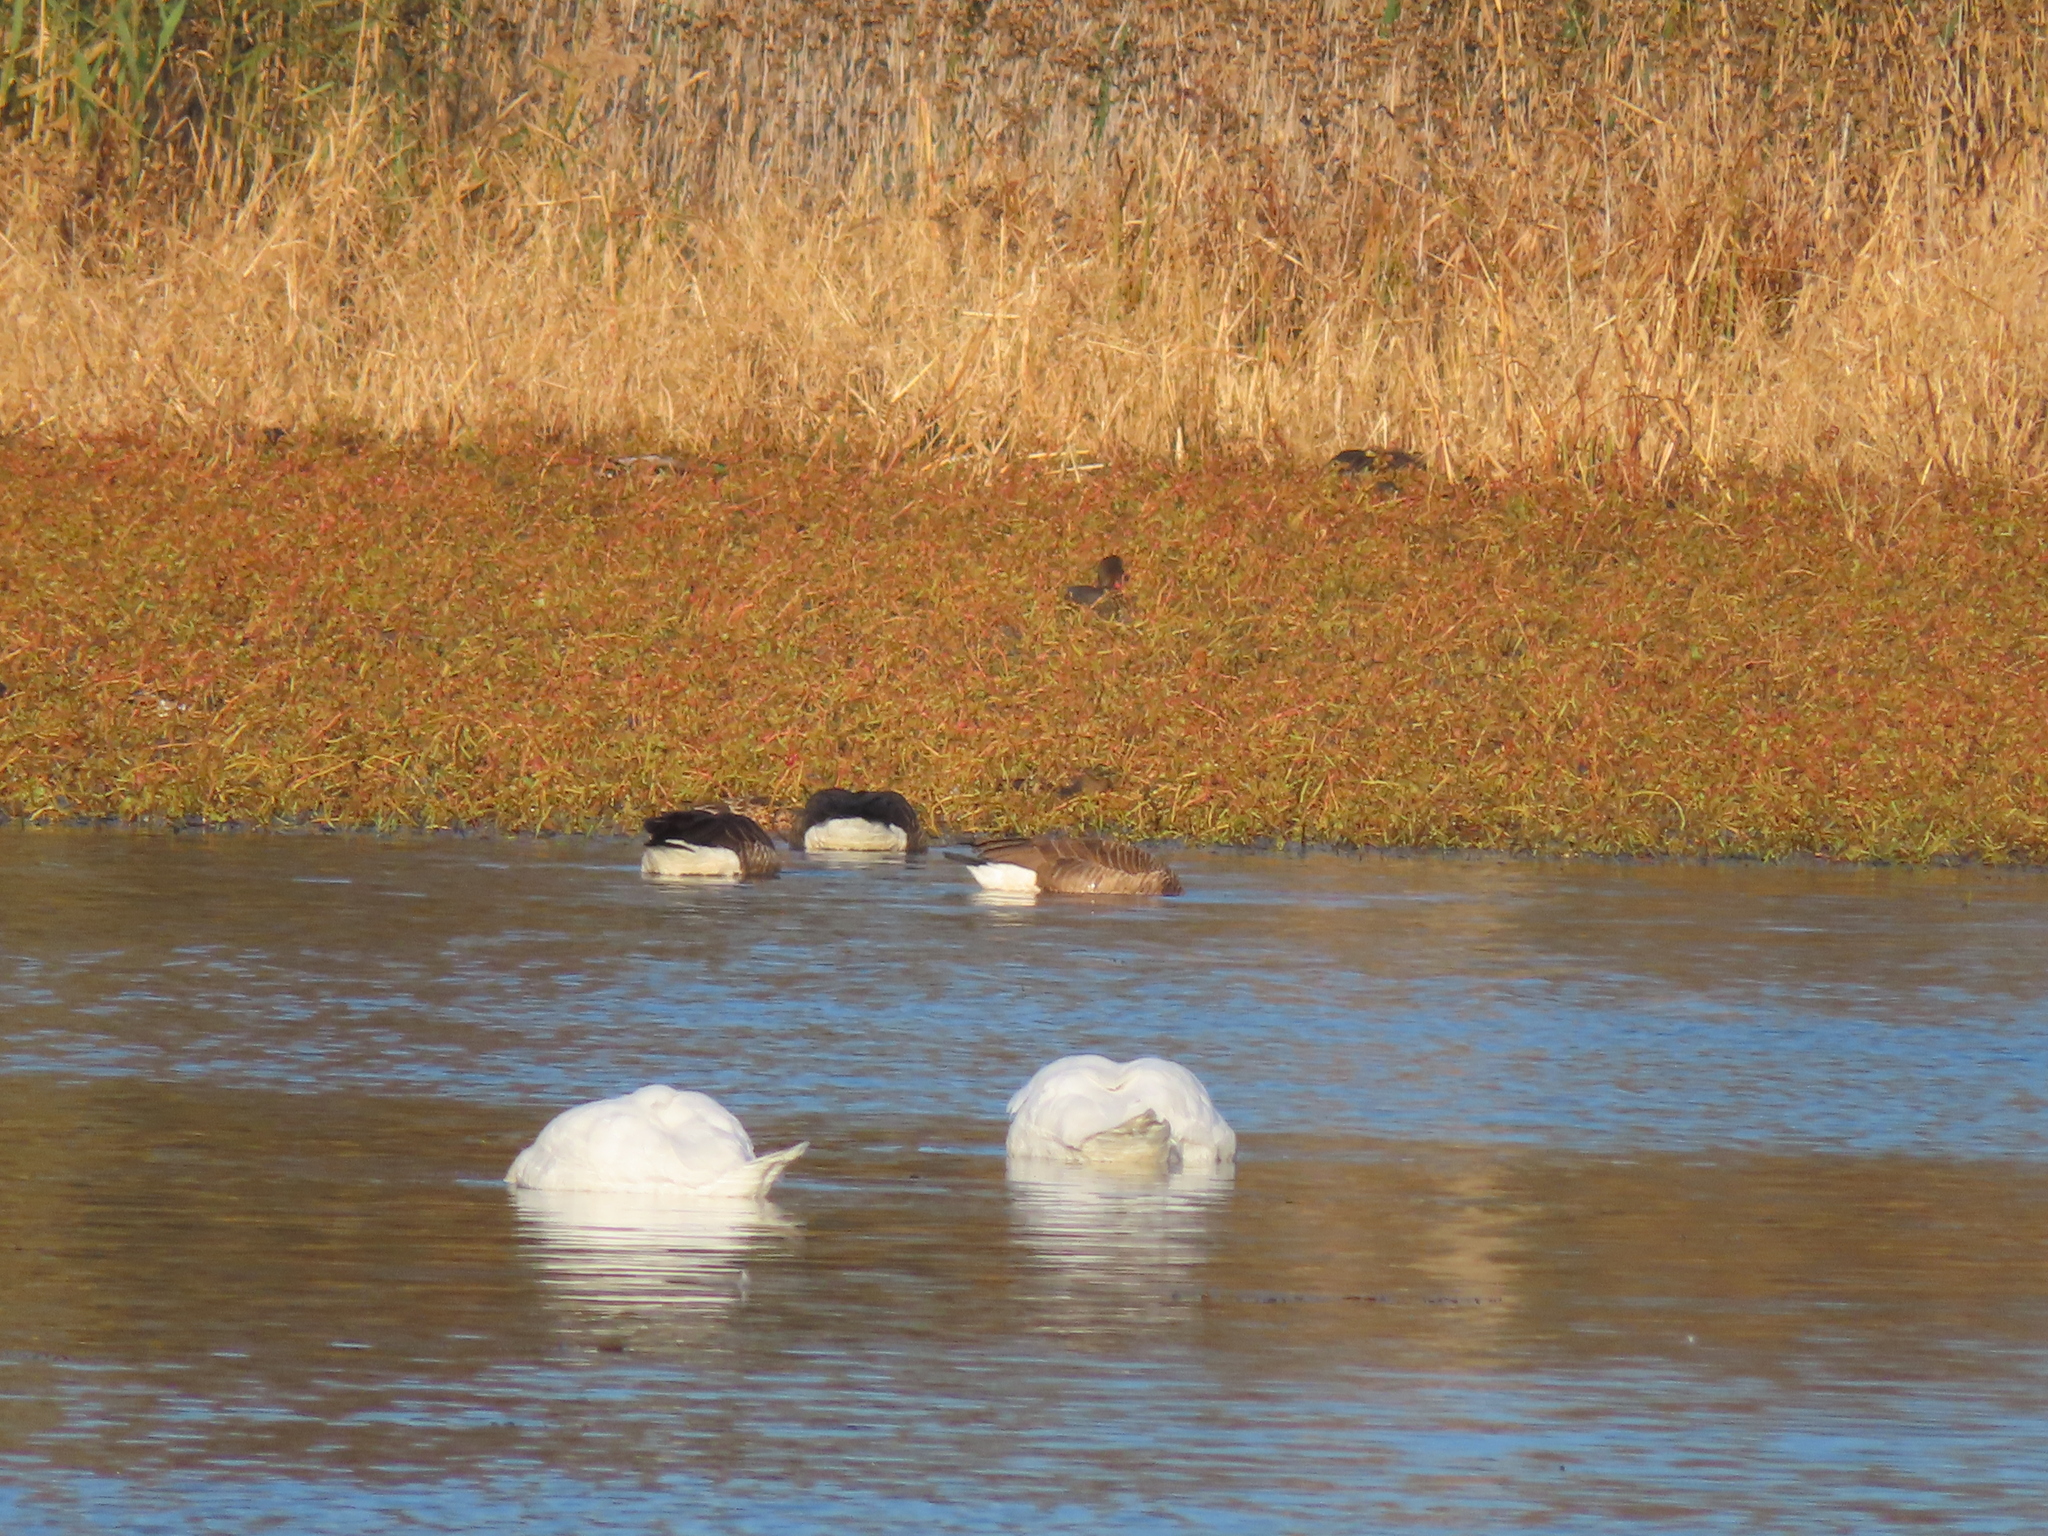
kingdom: Animalia
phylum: Chordata
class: Aves
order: Anseriformes
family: Anatidae
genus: Cygnus
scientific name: Cygnus olor
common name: Mute swan
